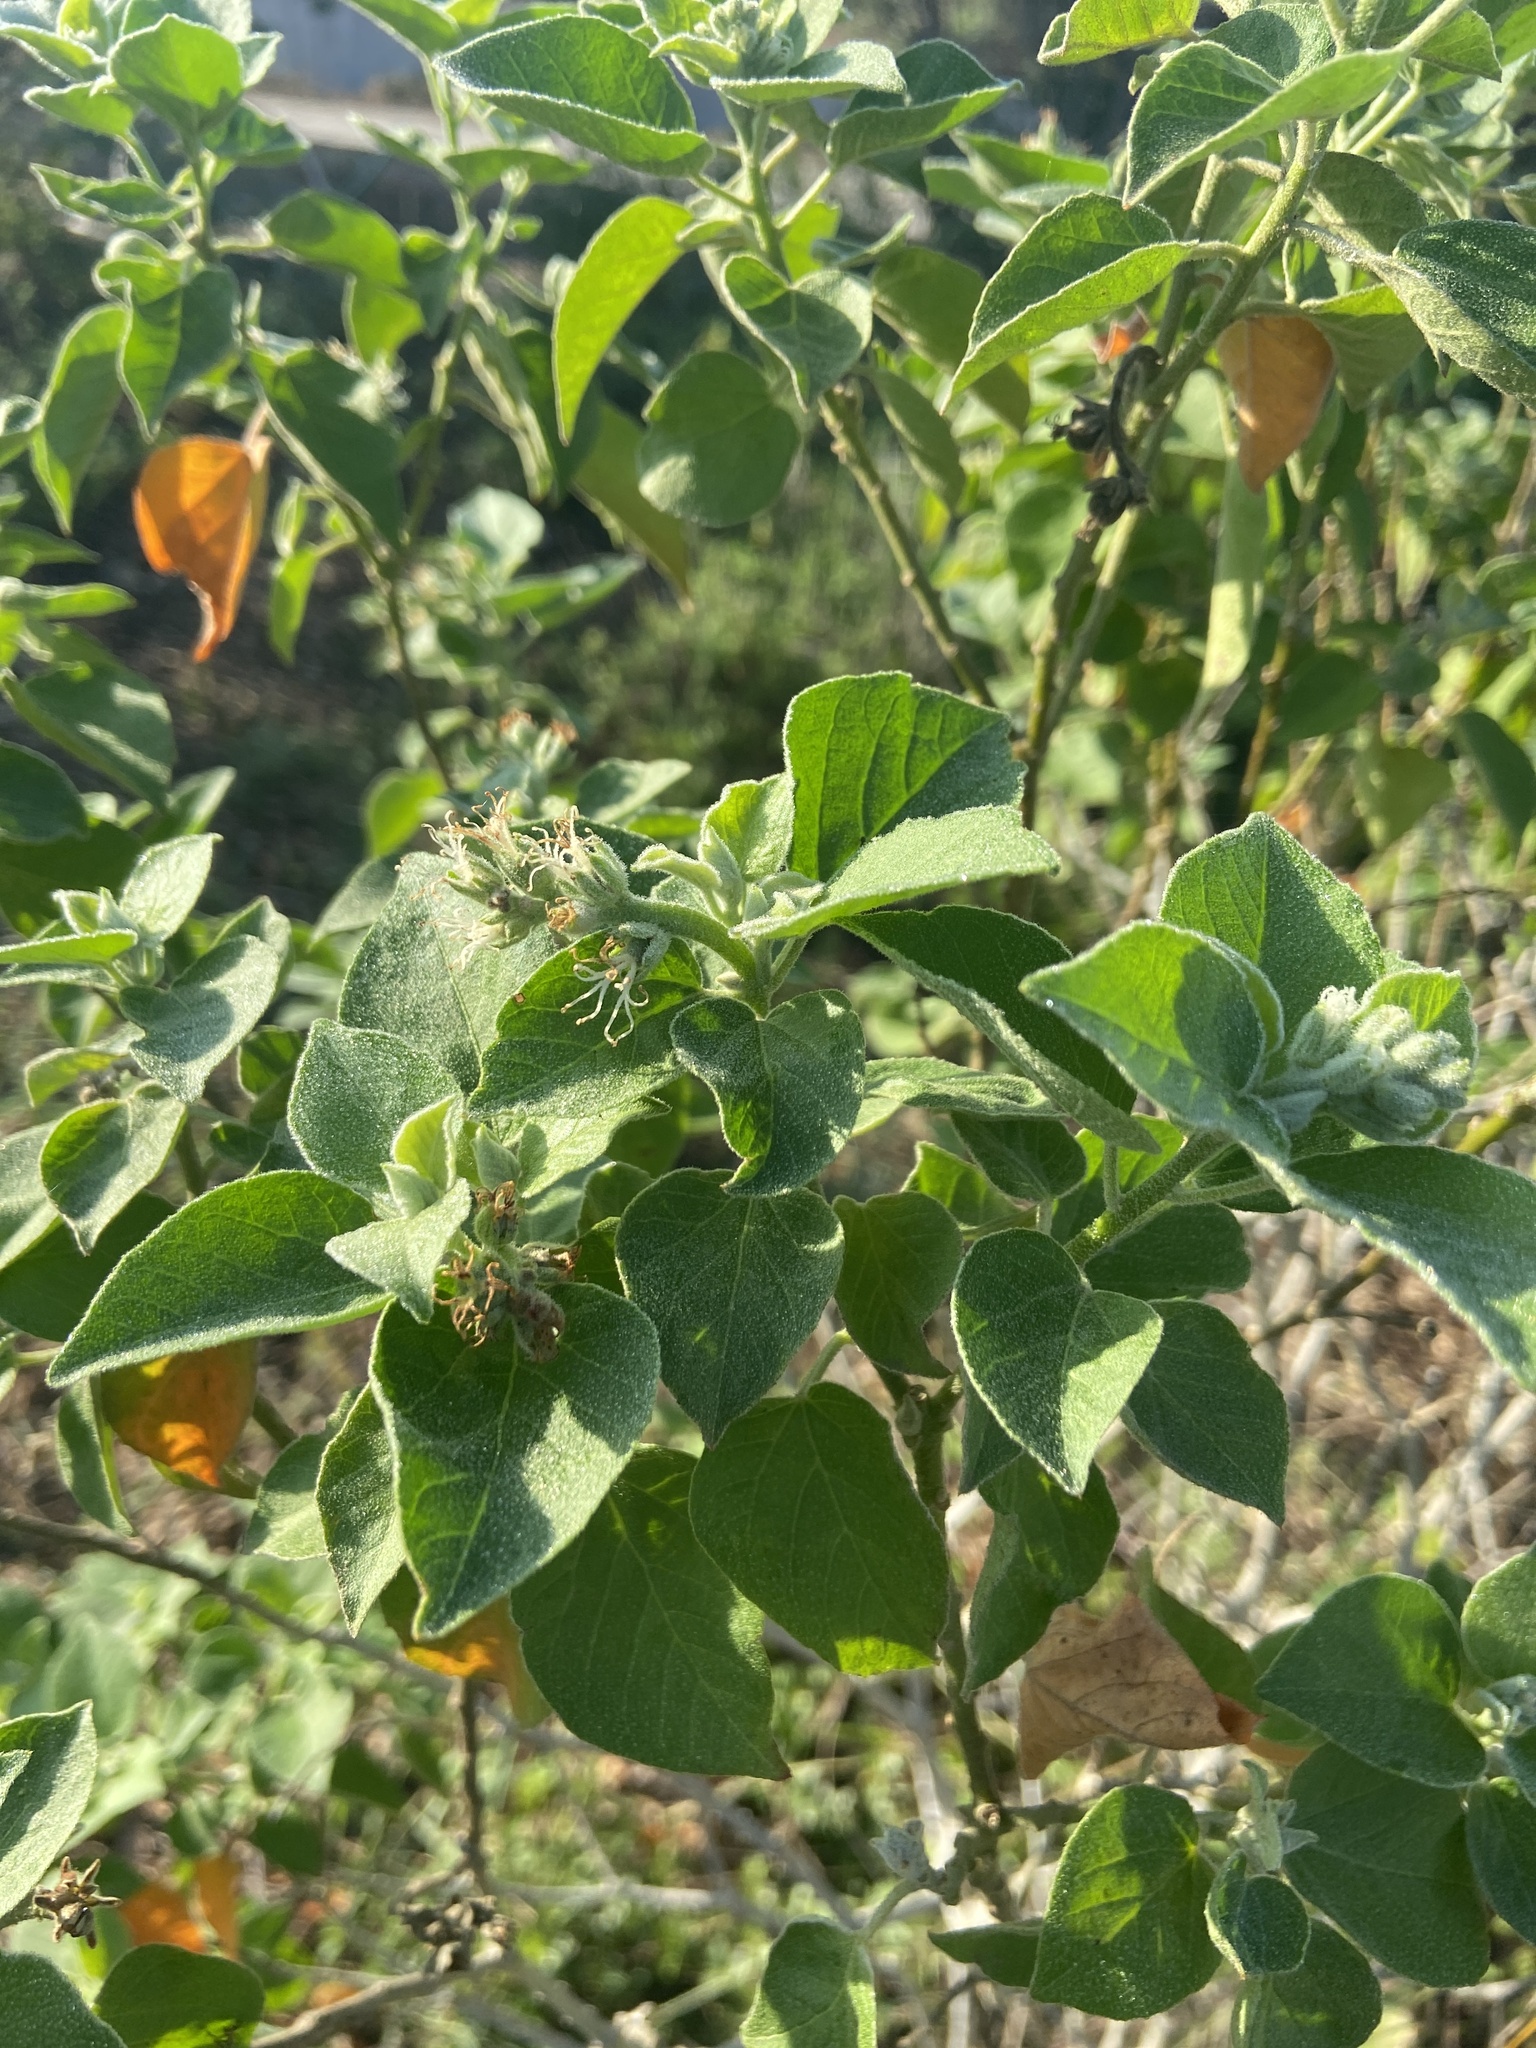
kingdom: Plantae
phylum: Tracheophyta
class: Magnoliopsida
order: Malpighiales
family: Euphorbiaceae
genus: Croton
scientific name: Croton ciliatoglandulifer
